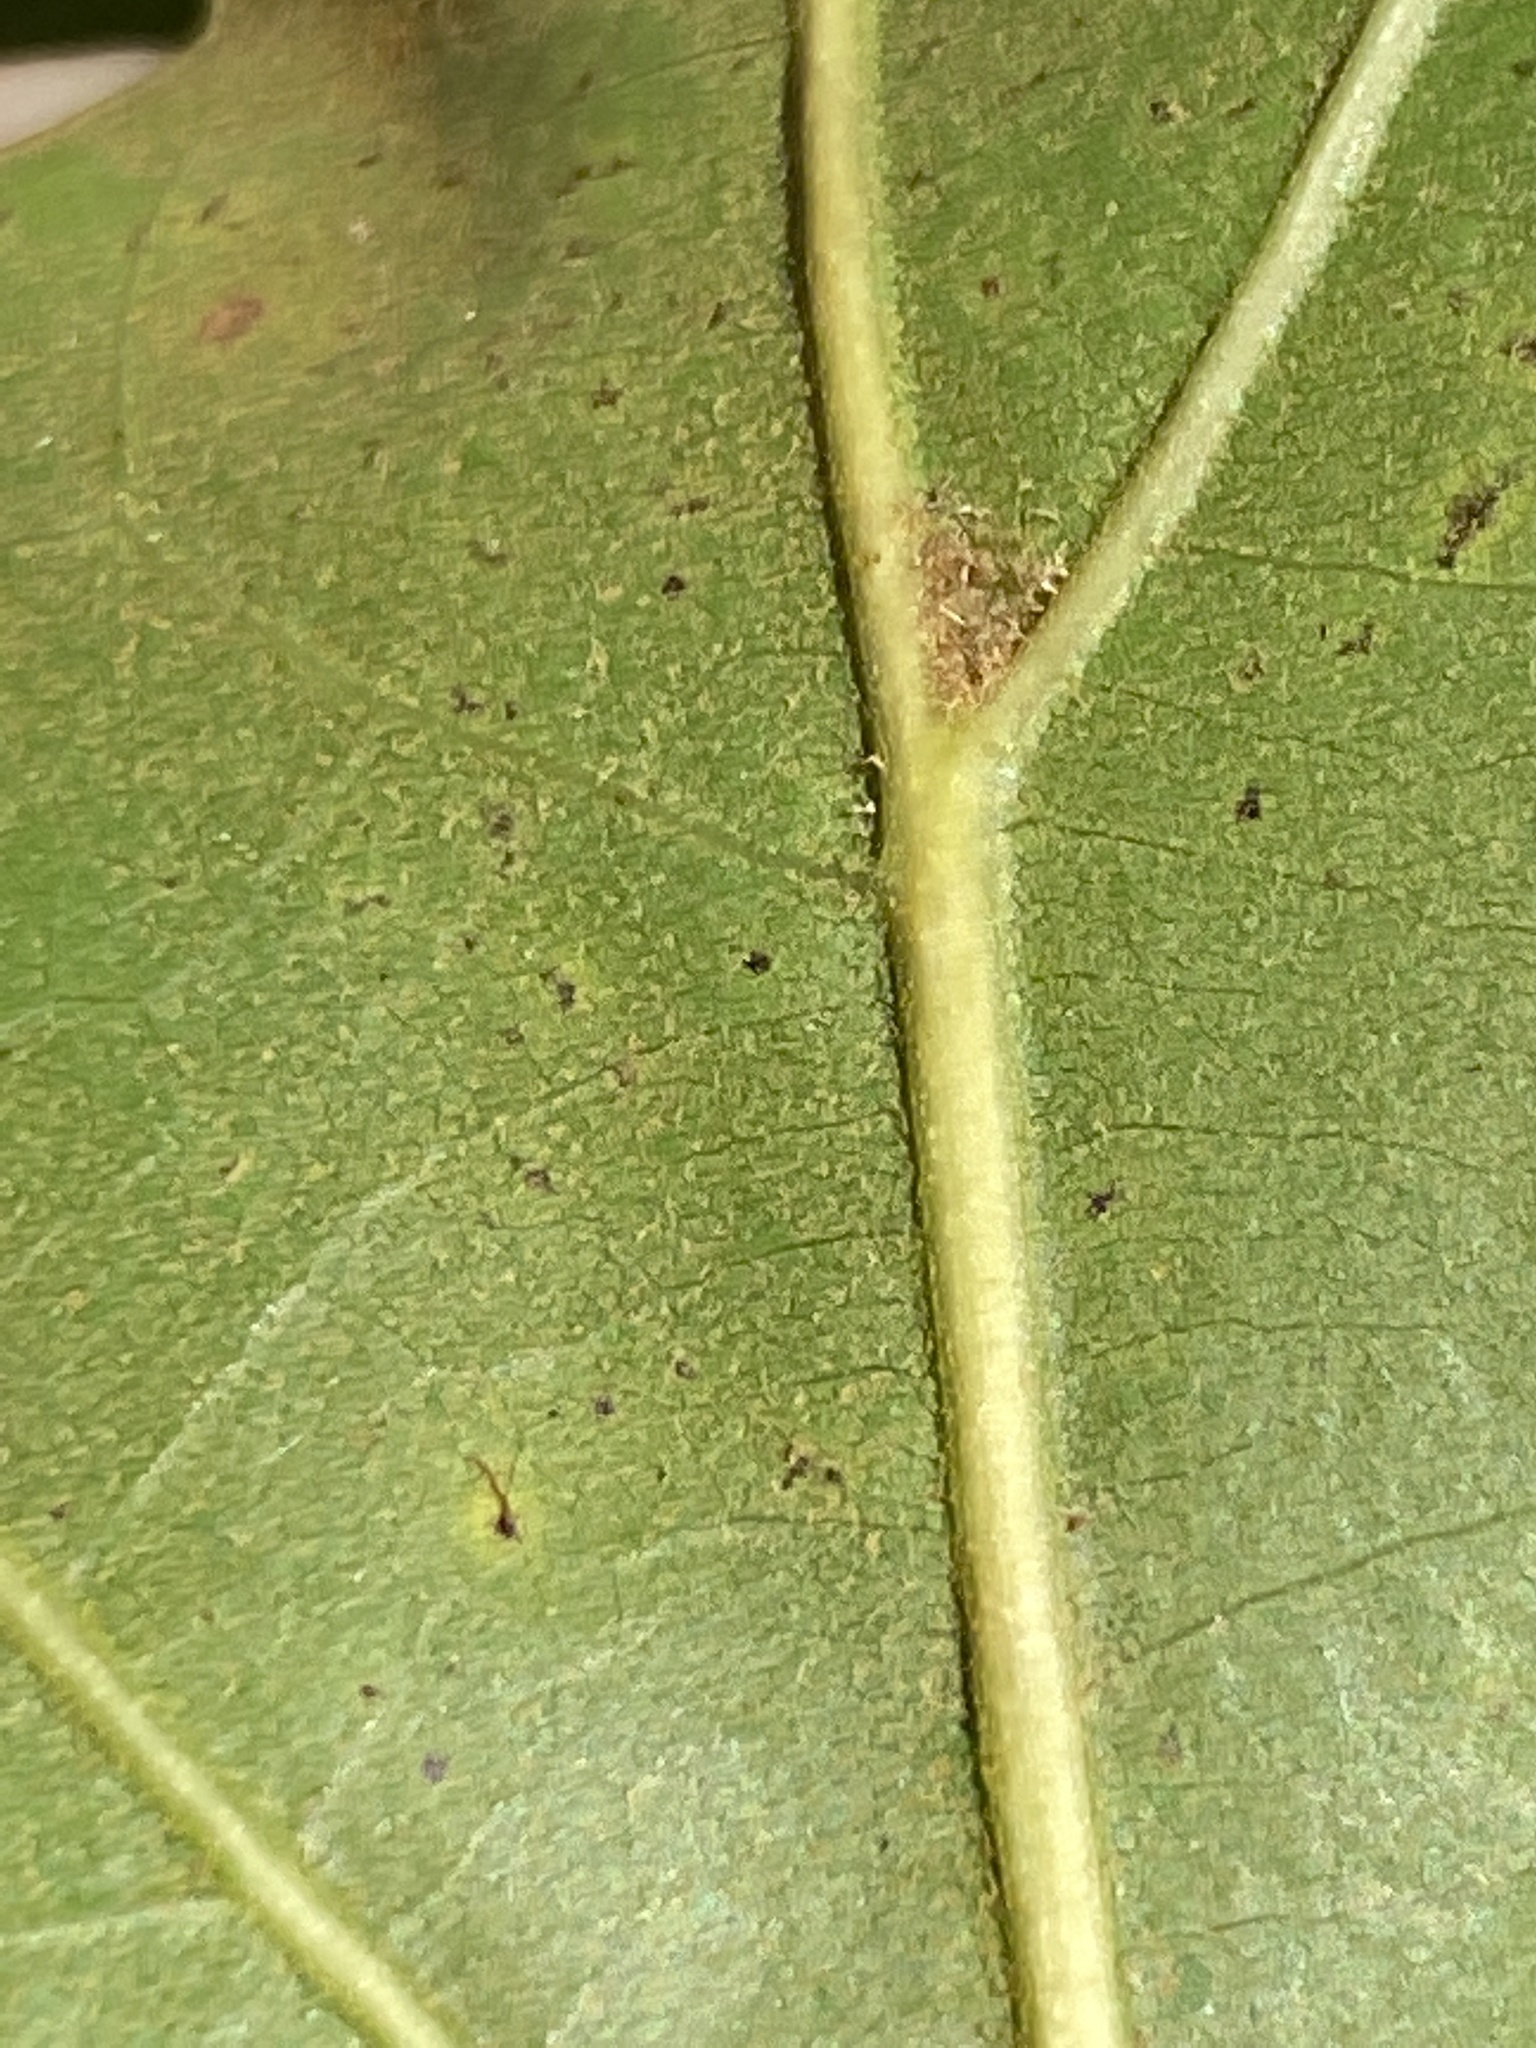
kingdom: Plantae
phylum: Tracheophyta
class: Magnoliopsida
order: Fagales
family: Fagaceae
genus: Quercus
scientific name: Quercus laevis
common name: Turkey oak
